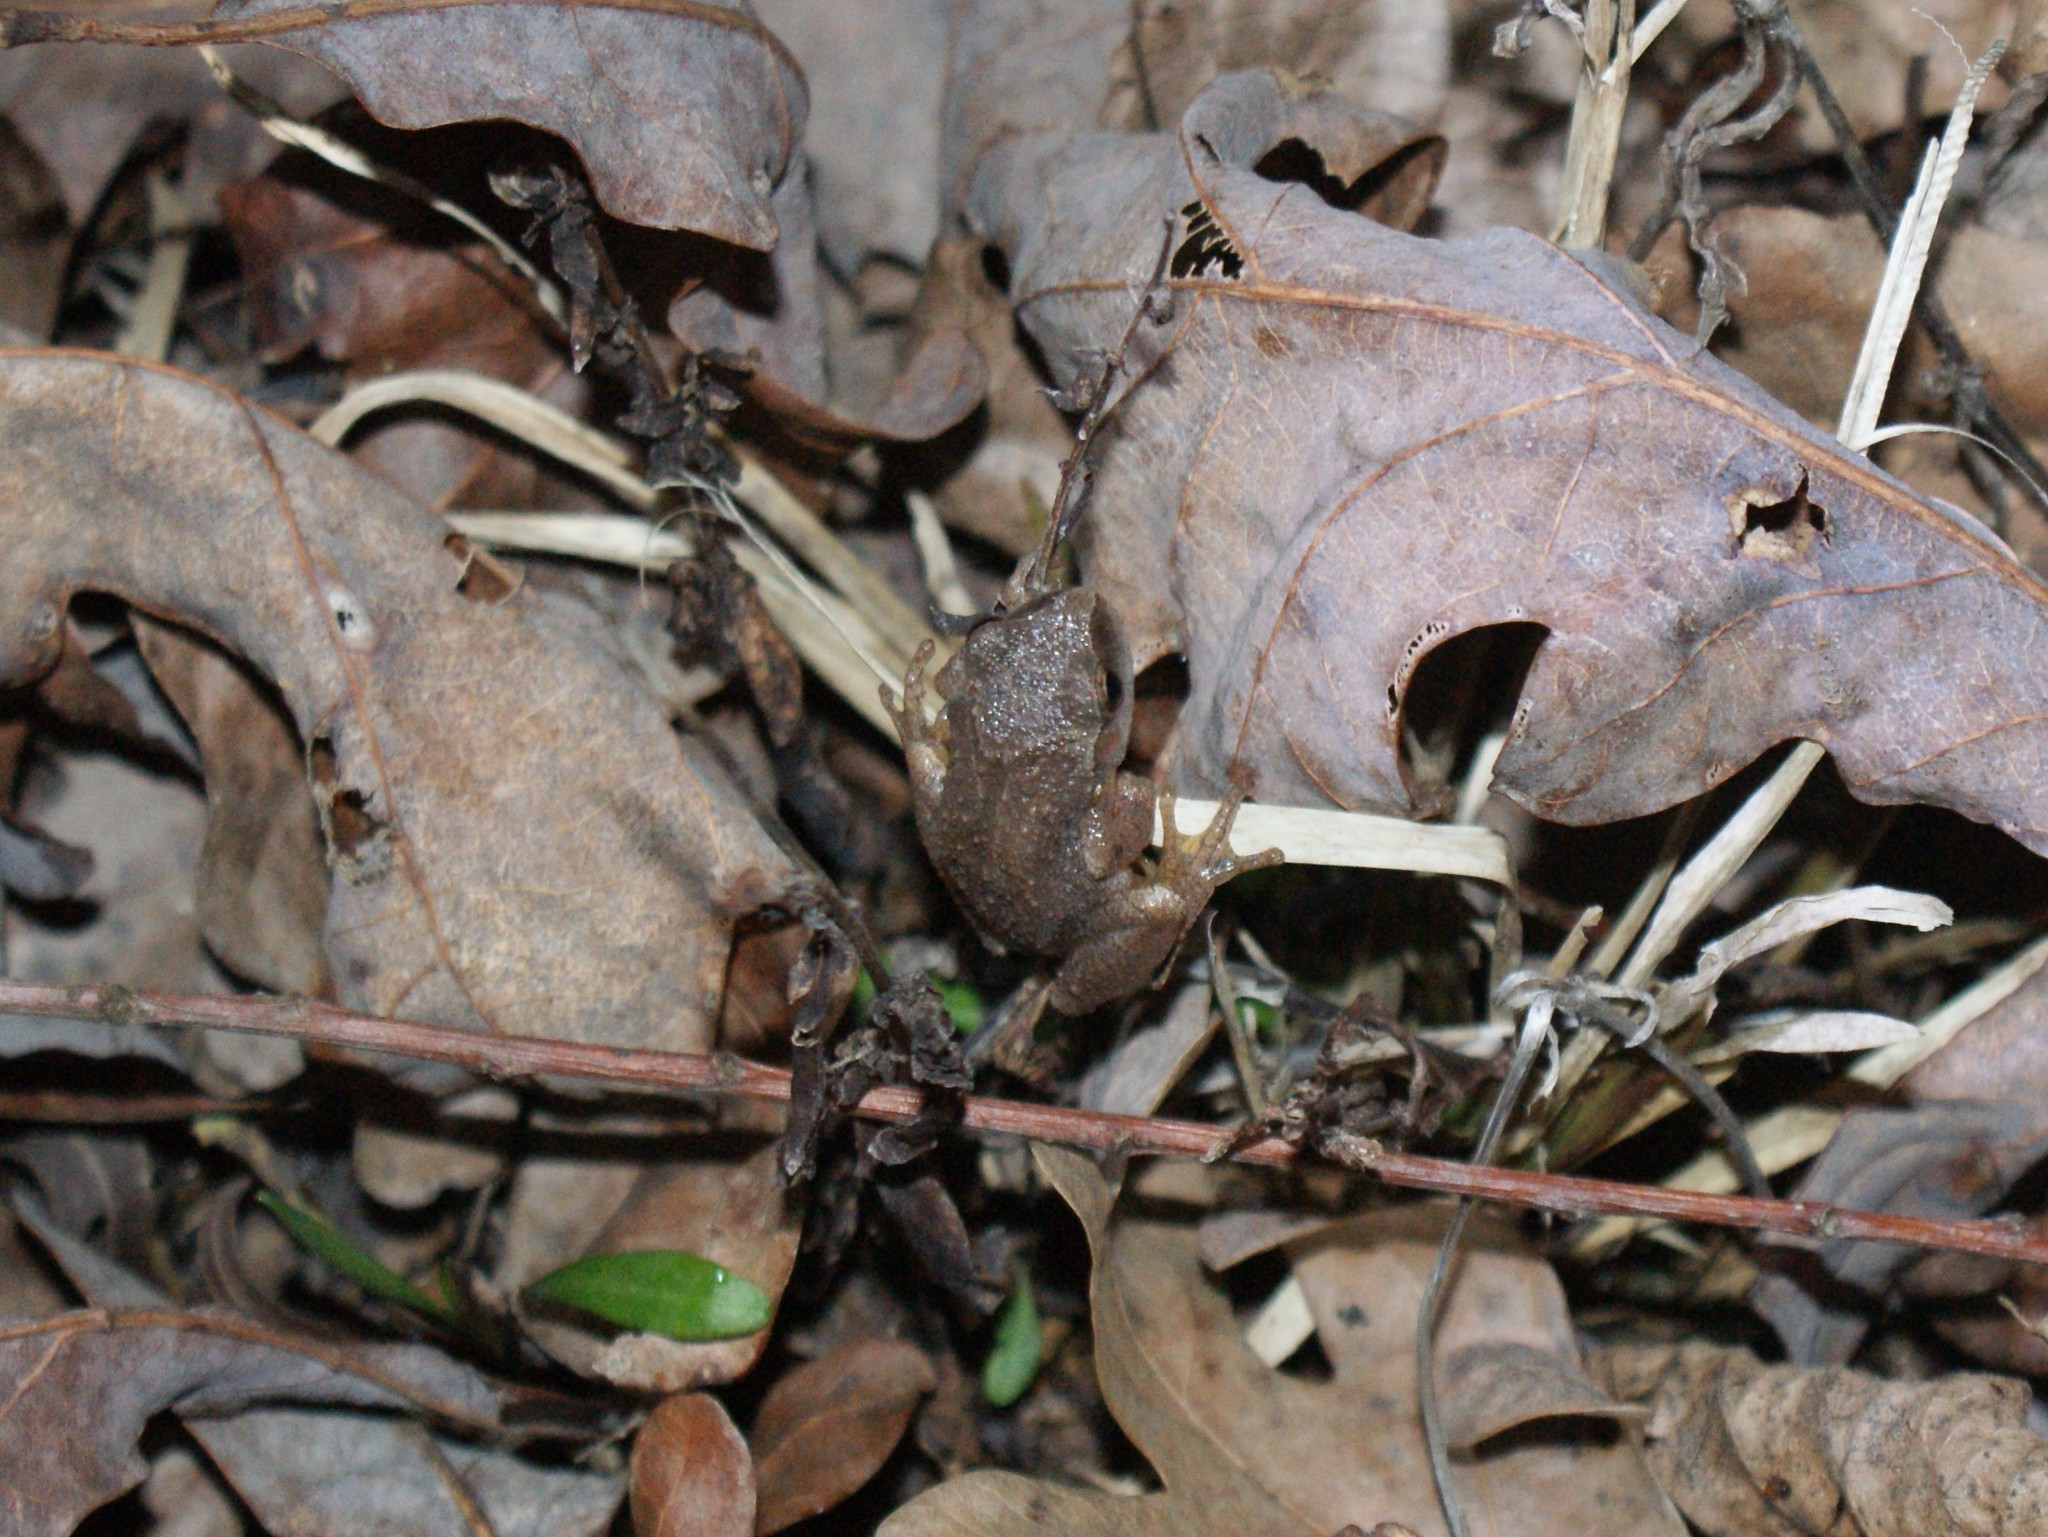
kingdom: Animalia
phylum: Chordata
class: Amphibia
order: Anura
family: Hylidae
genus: Pseudacris
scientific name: Pseudacris crucifer
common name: Spring peeper
